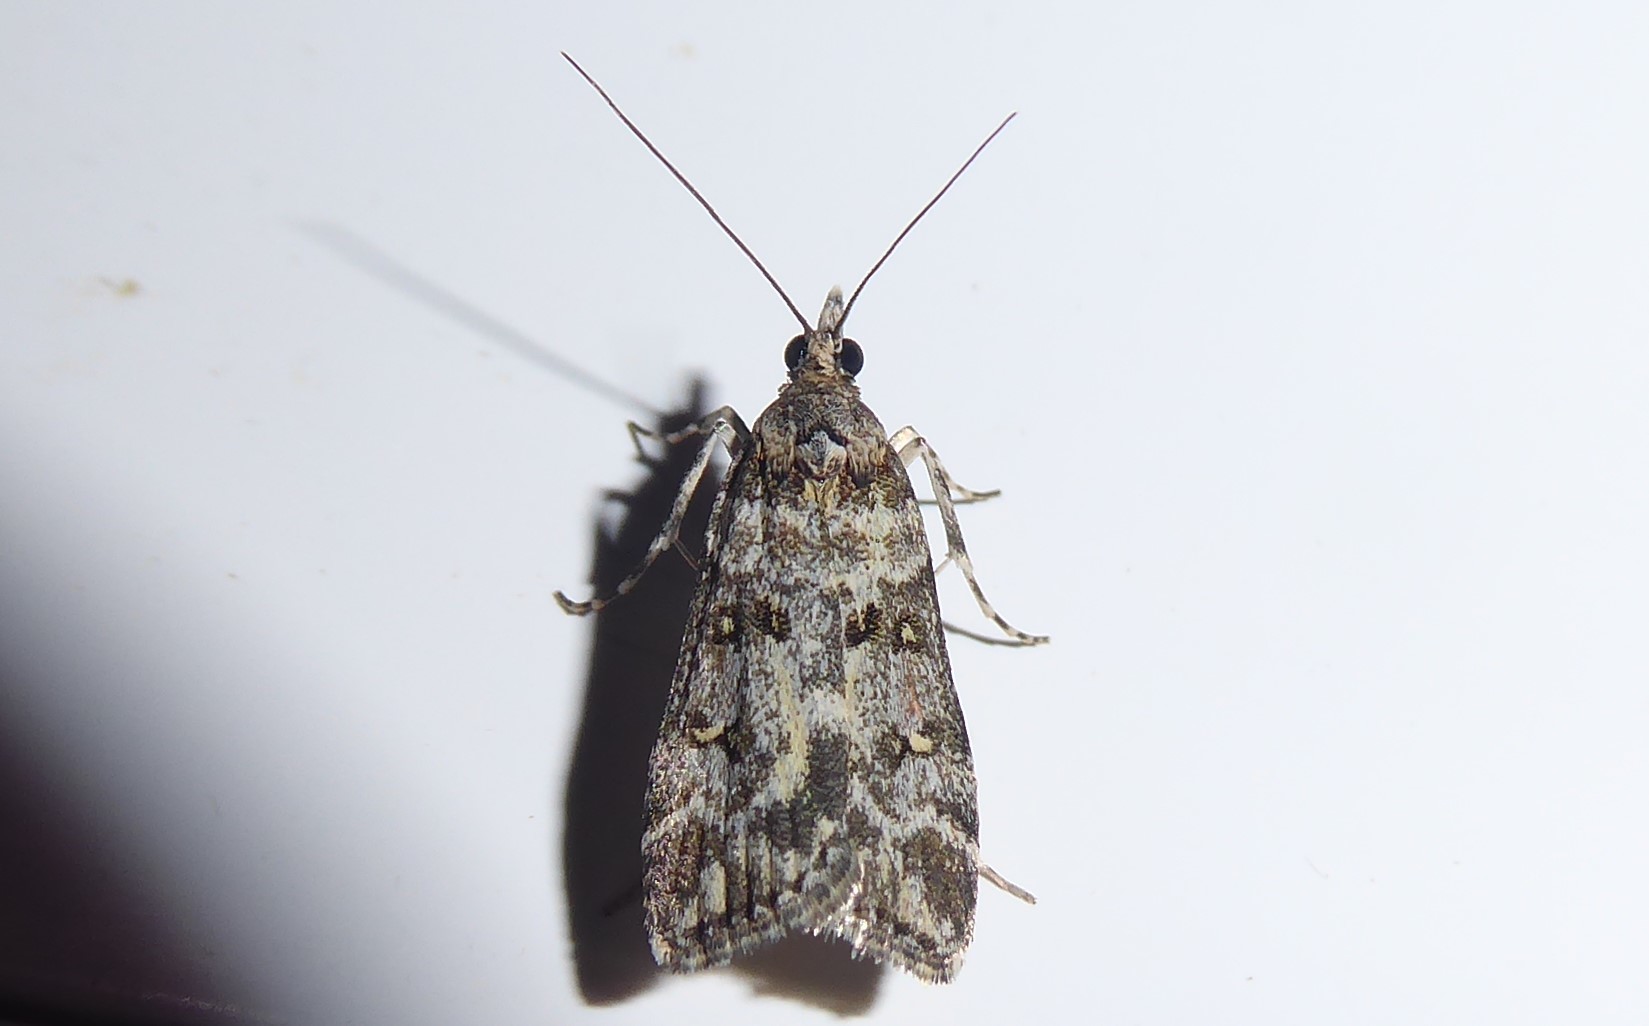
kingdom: Animalia
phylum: Arthropoda
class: Insecta
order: Lepidoptera
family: Crambidae
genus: Eudonia
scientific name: Eudonia diphtheralis
